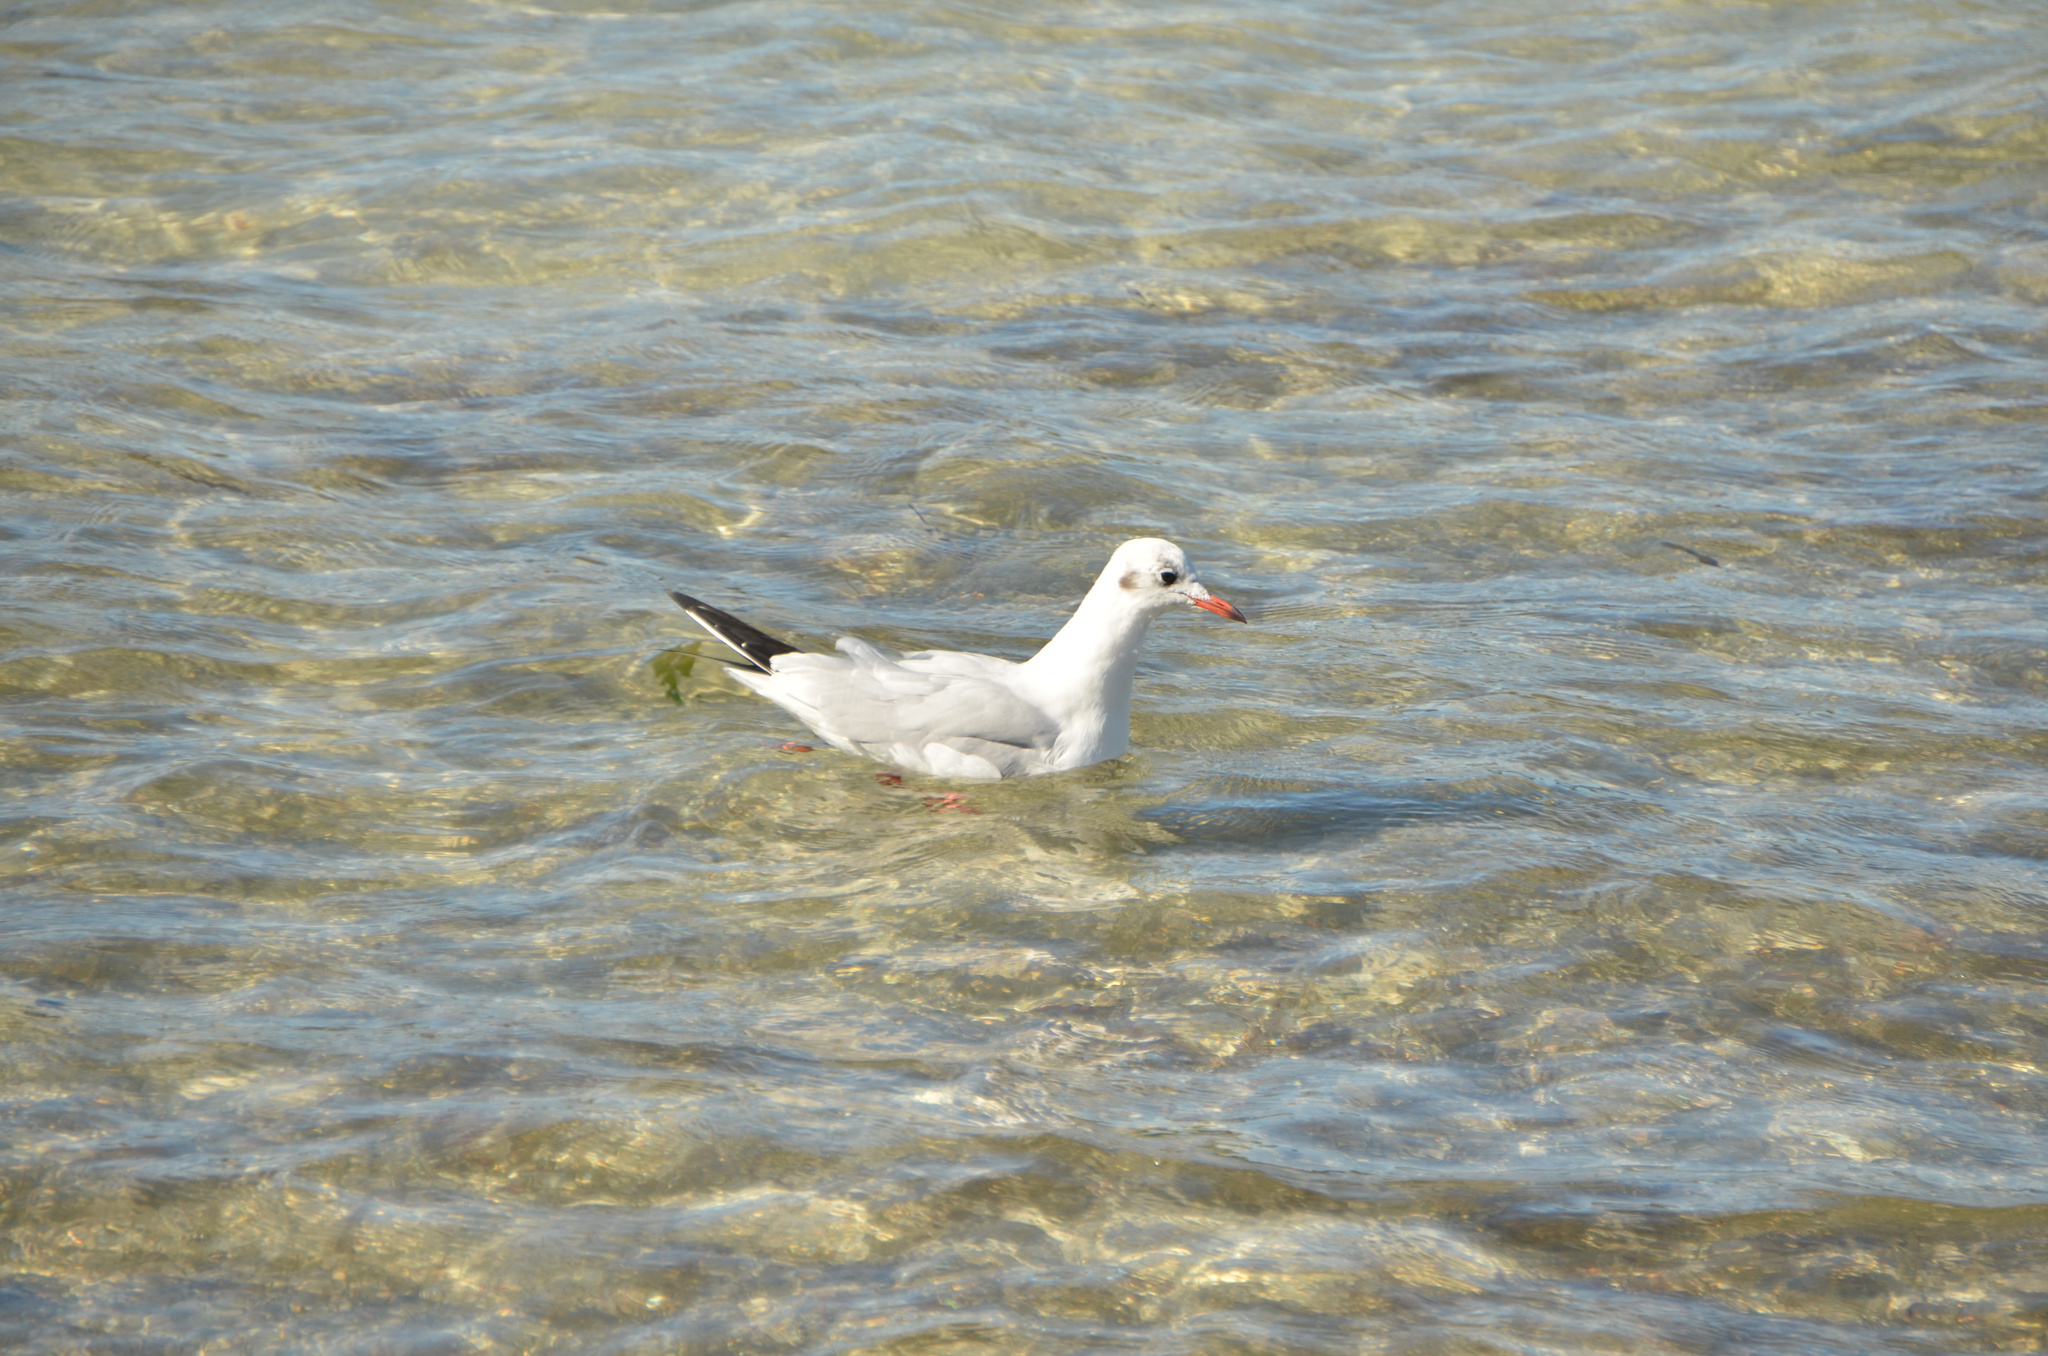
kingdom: Animalia
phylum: Chordata
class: Aves
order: Charadriiformes
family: Laridae
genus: Chroicocephalus
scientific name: Chroicocephalus ridibundus
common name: Black-headed gull
